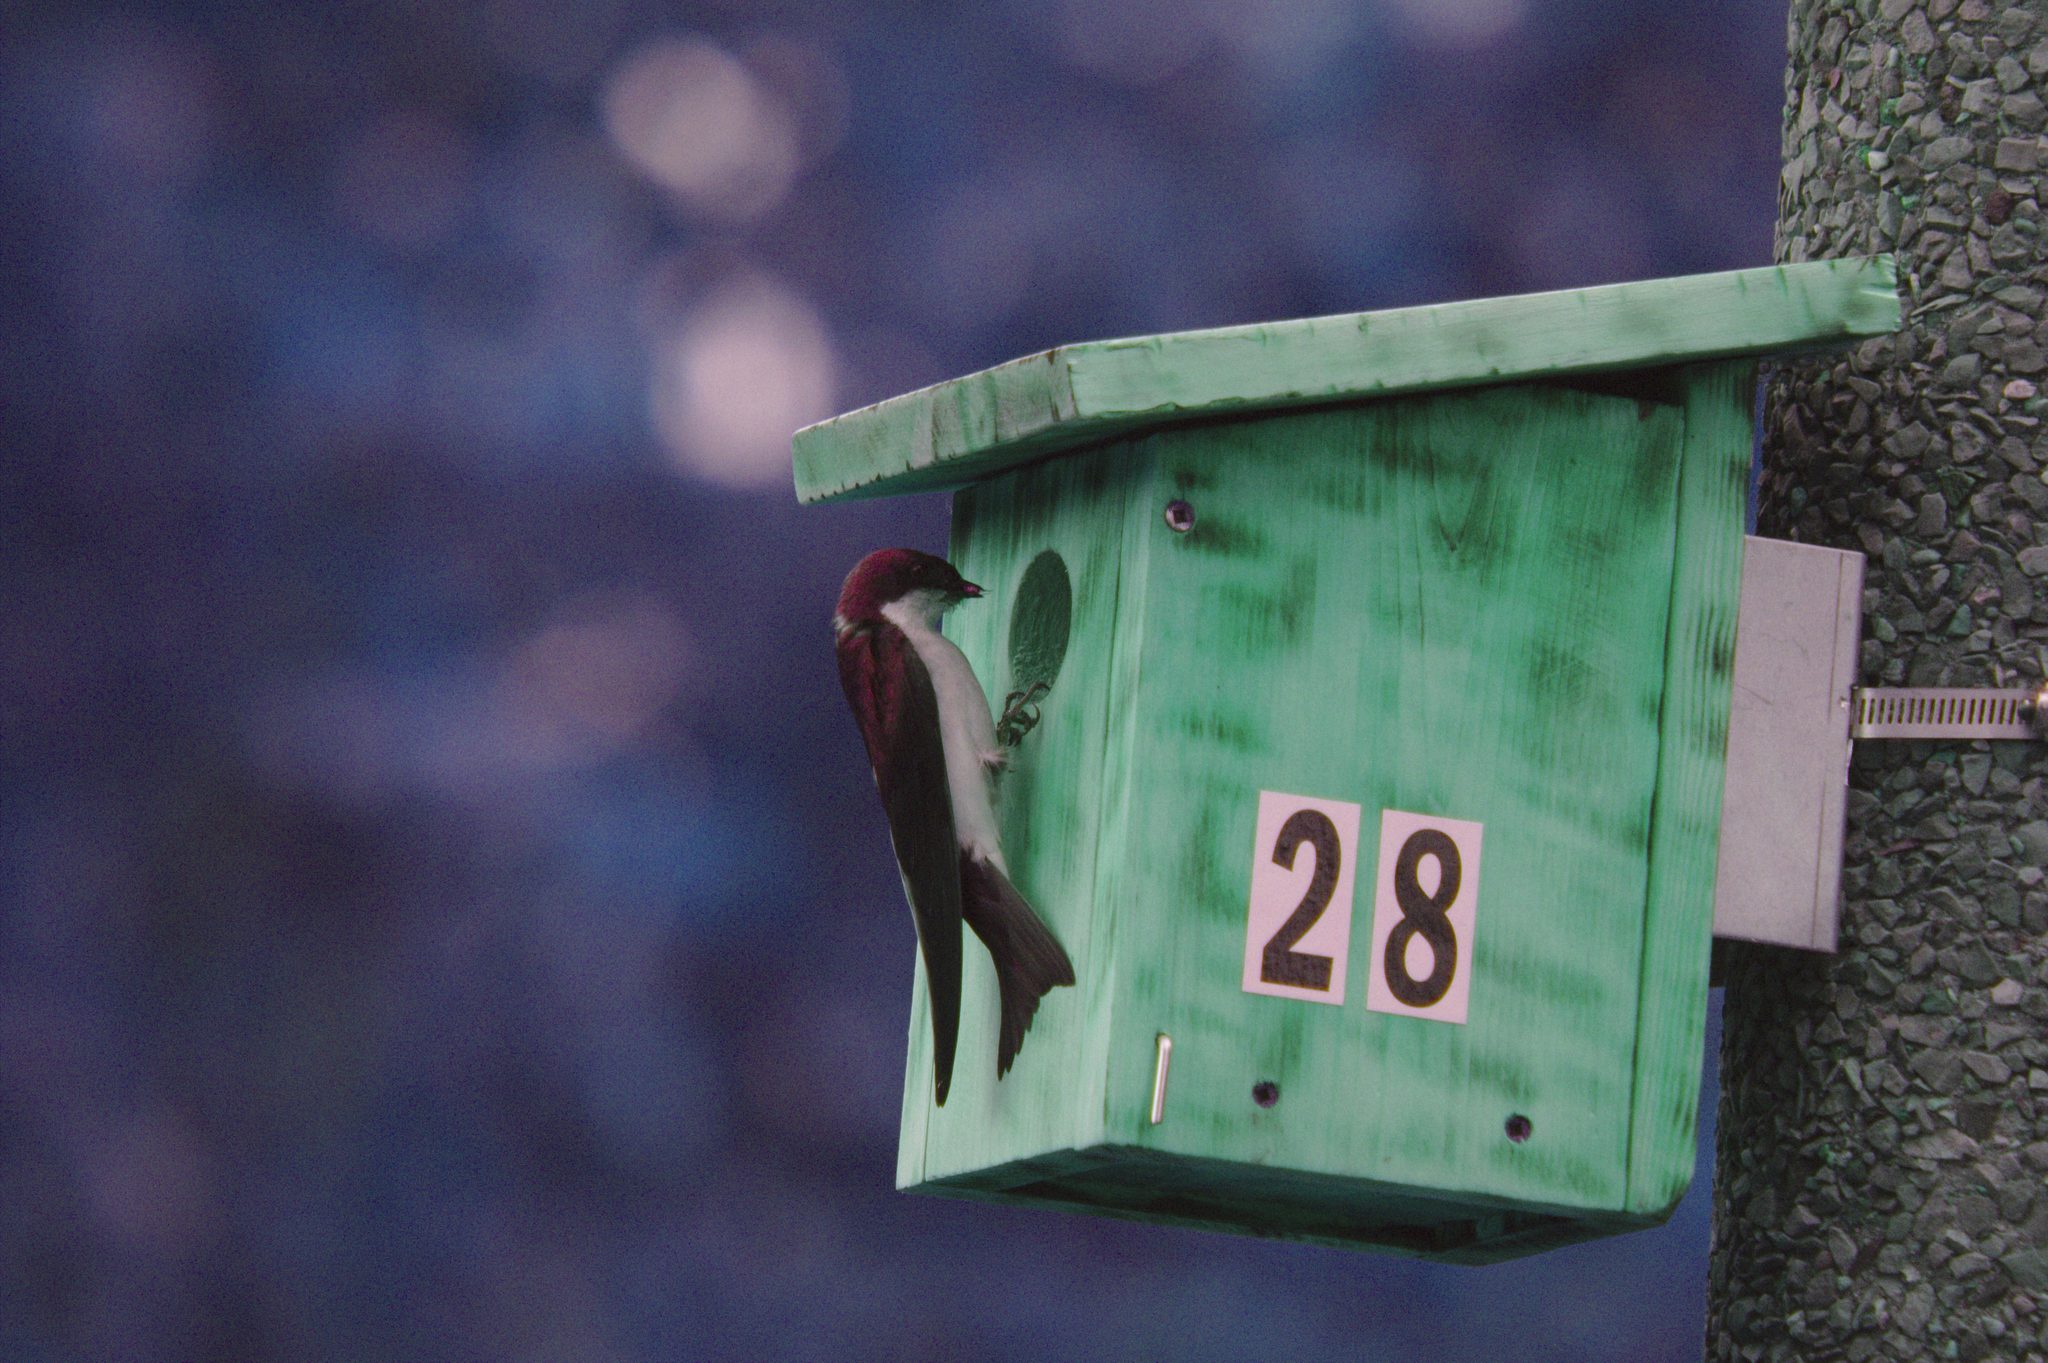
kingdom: Animalia
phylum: Chordata
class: Aves
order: Passeriformes
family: Hirundinidae
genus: Tachycineta
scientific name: Tachycineta bicolor
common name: Tree swallow
